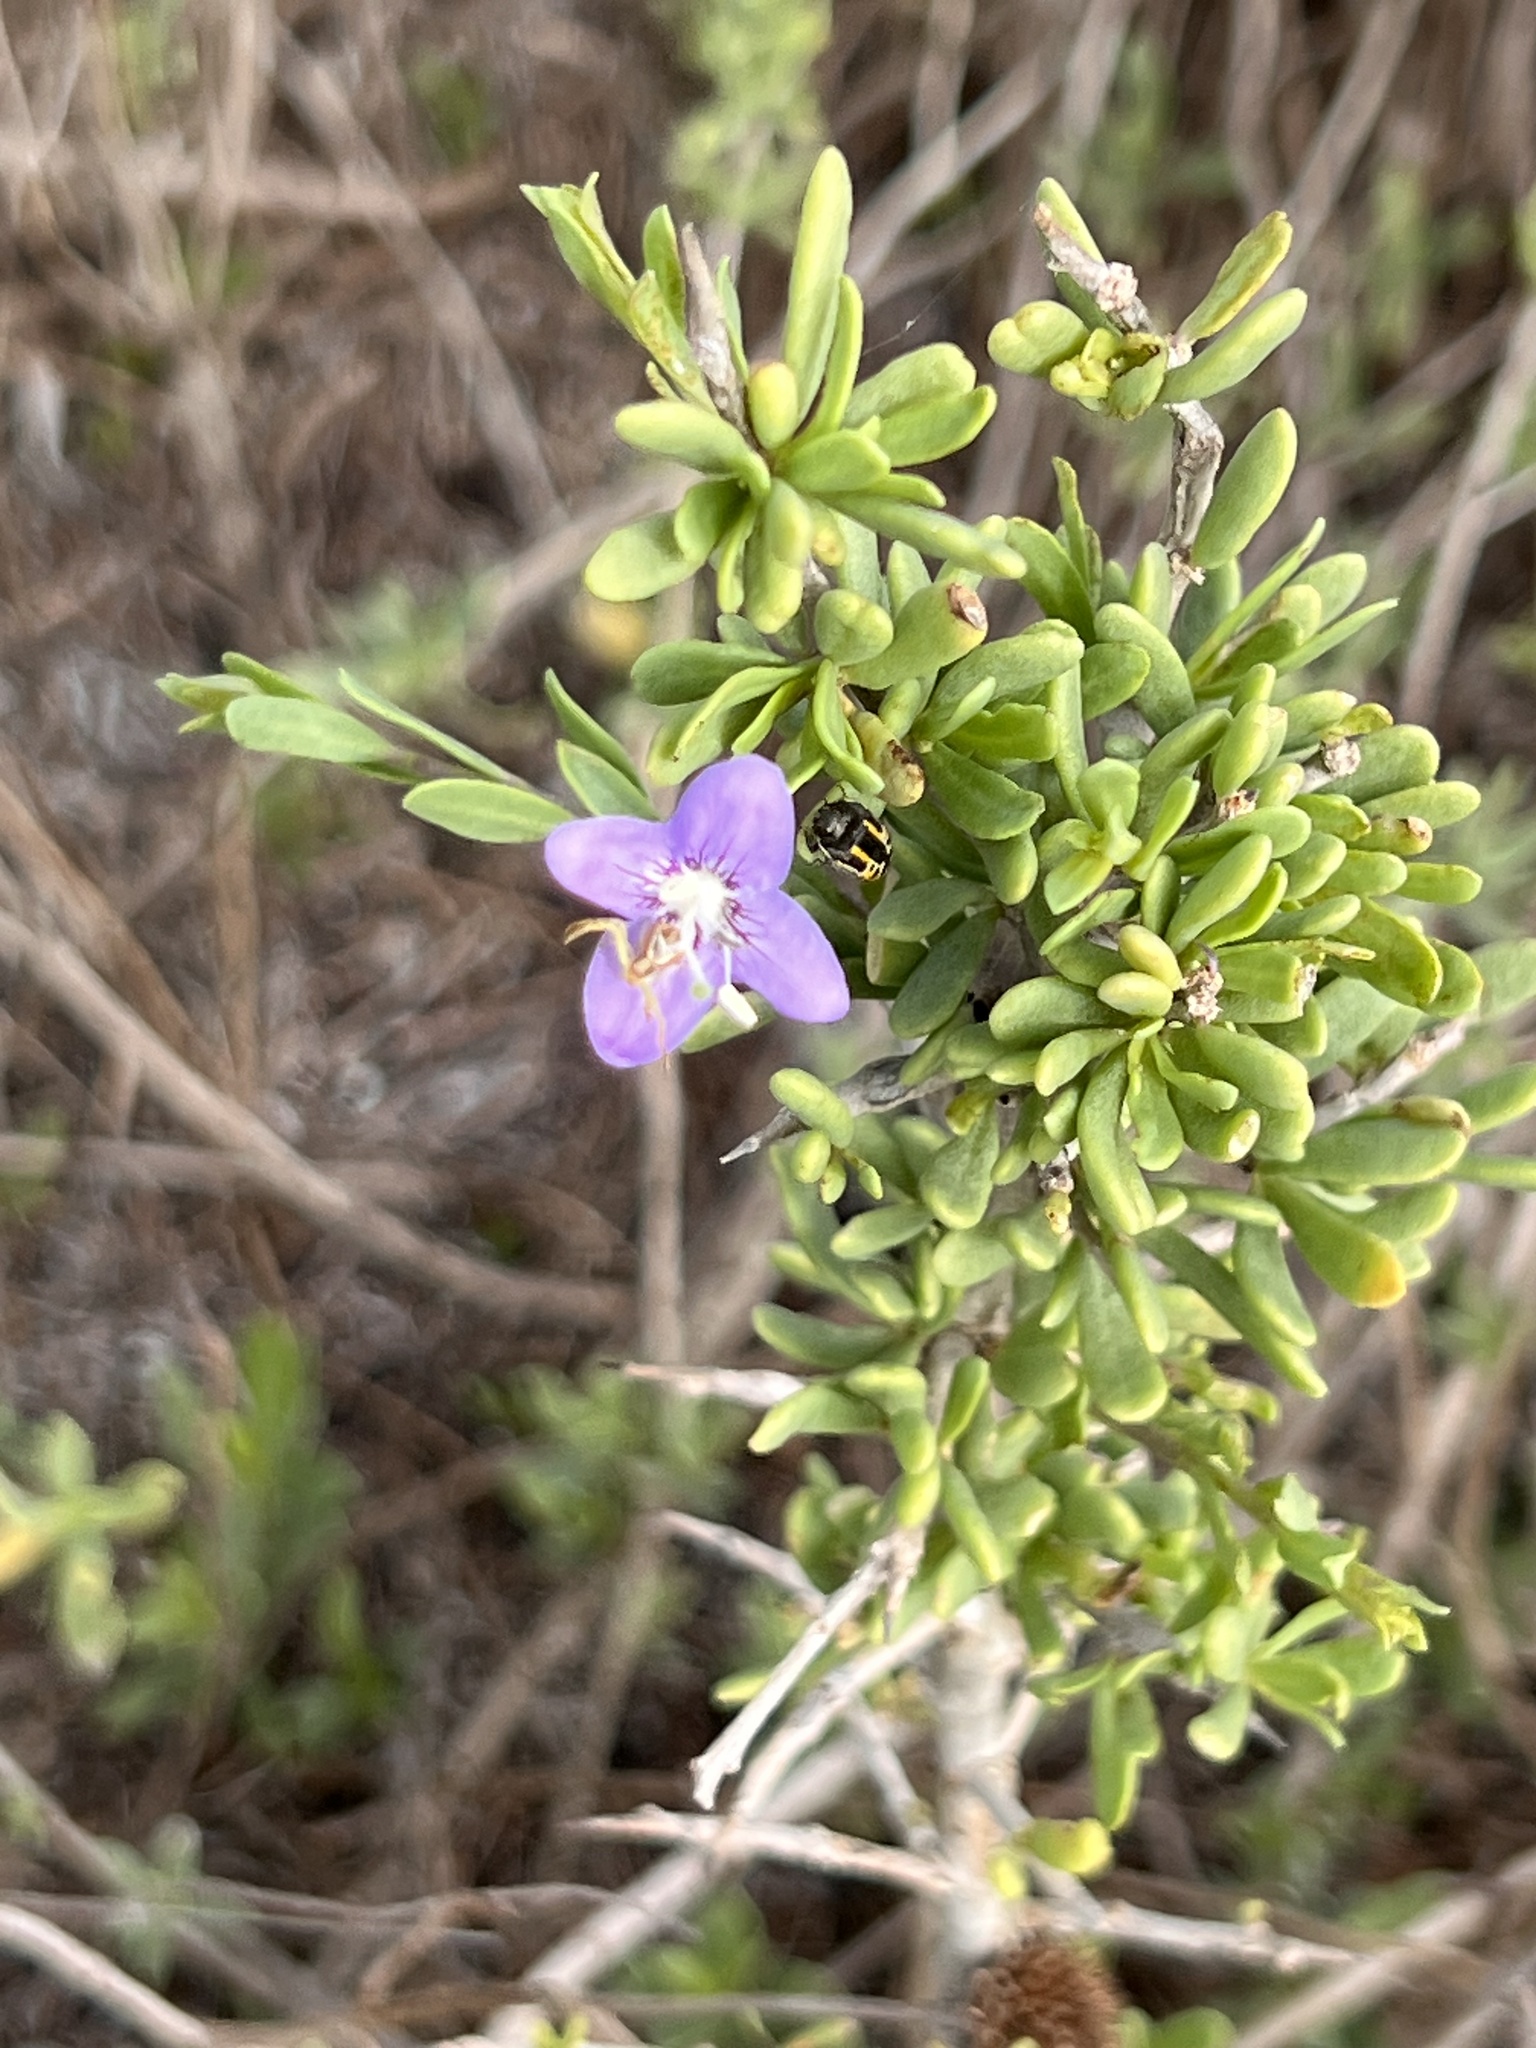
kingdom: Plantae
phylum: Tracheophyta
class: Magnoliopsida
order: Solanales
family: Solanaceae
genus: Lycium
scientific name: Lycium carolinianum
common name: Christmasberry
